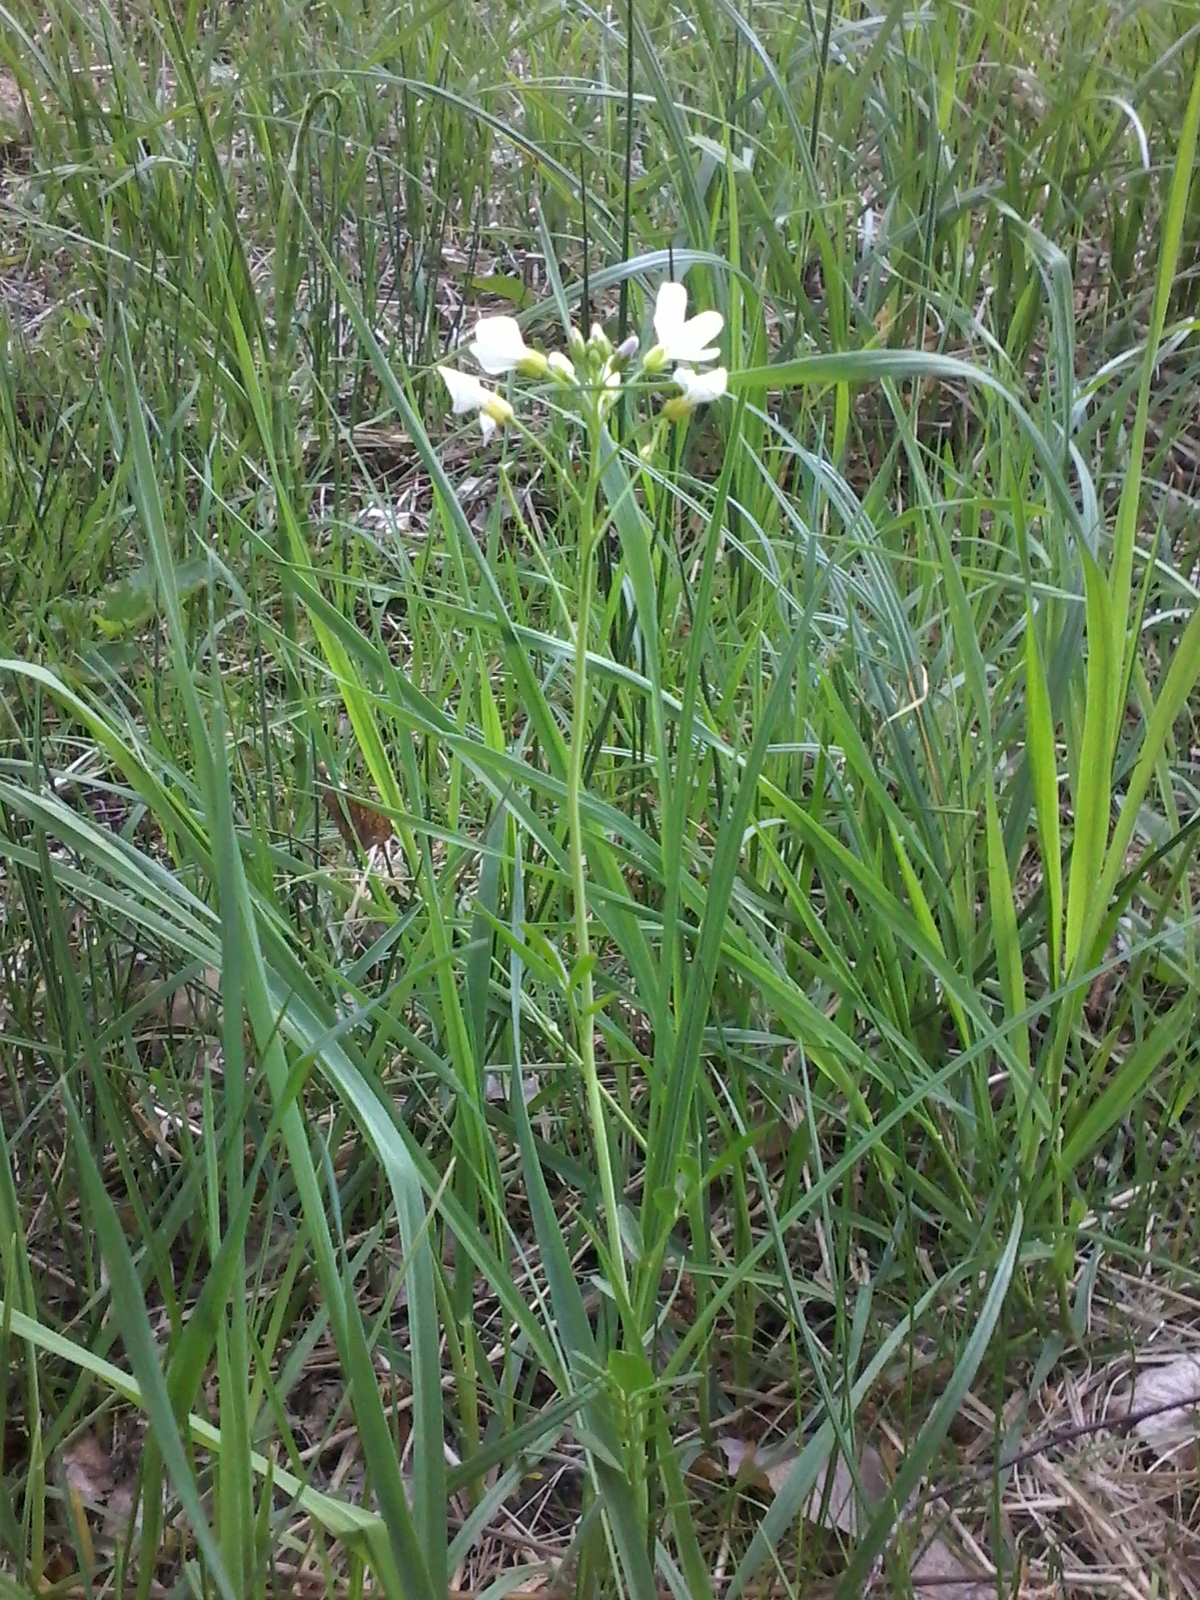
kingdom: Plantae
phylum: Tracheophyta
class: Magnoliopsida
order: Brassicales
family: Brassicaceae
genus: Cardamine
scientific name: Cardamine pratensis
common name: Cuckoo flower
